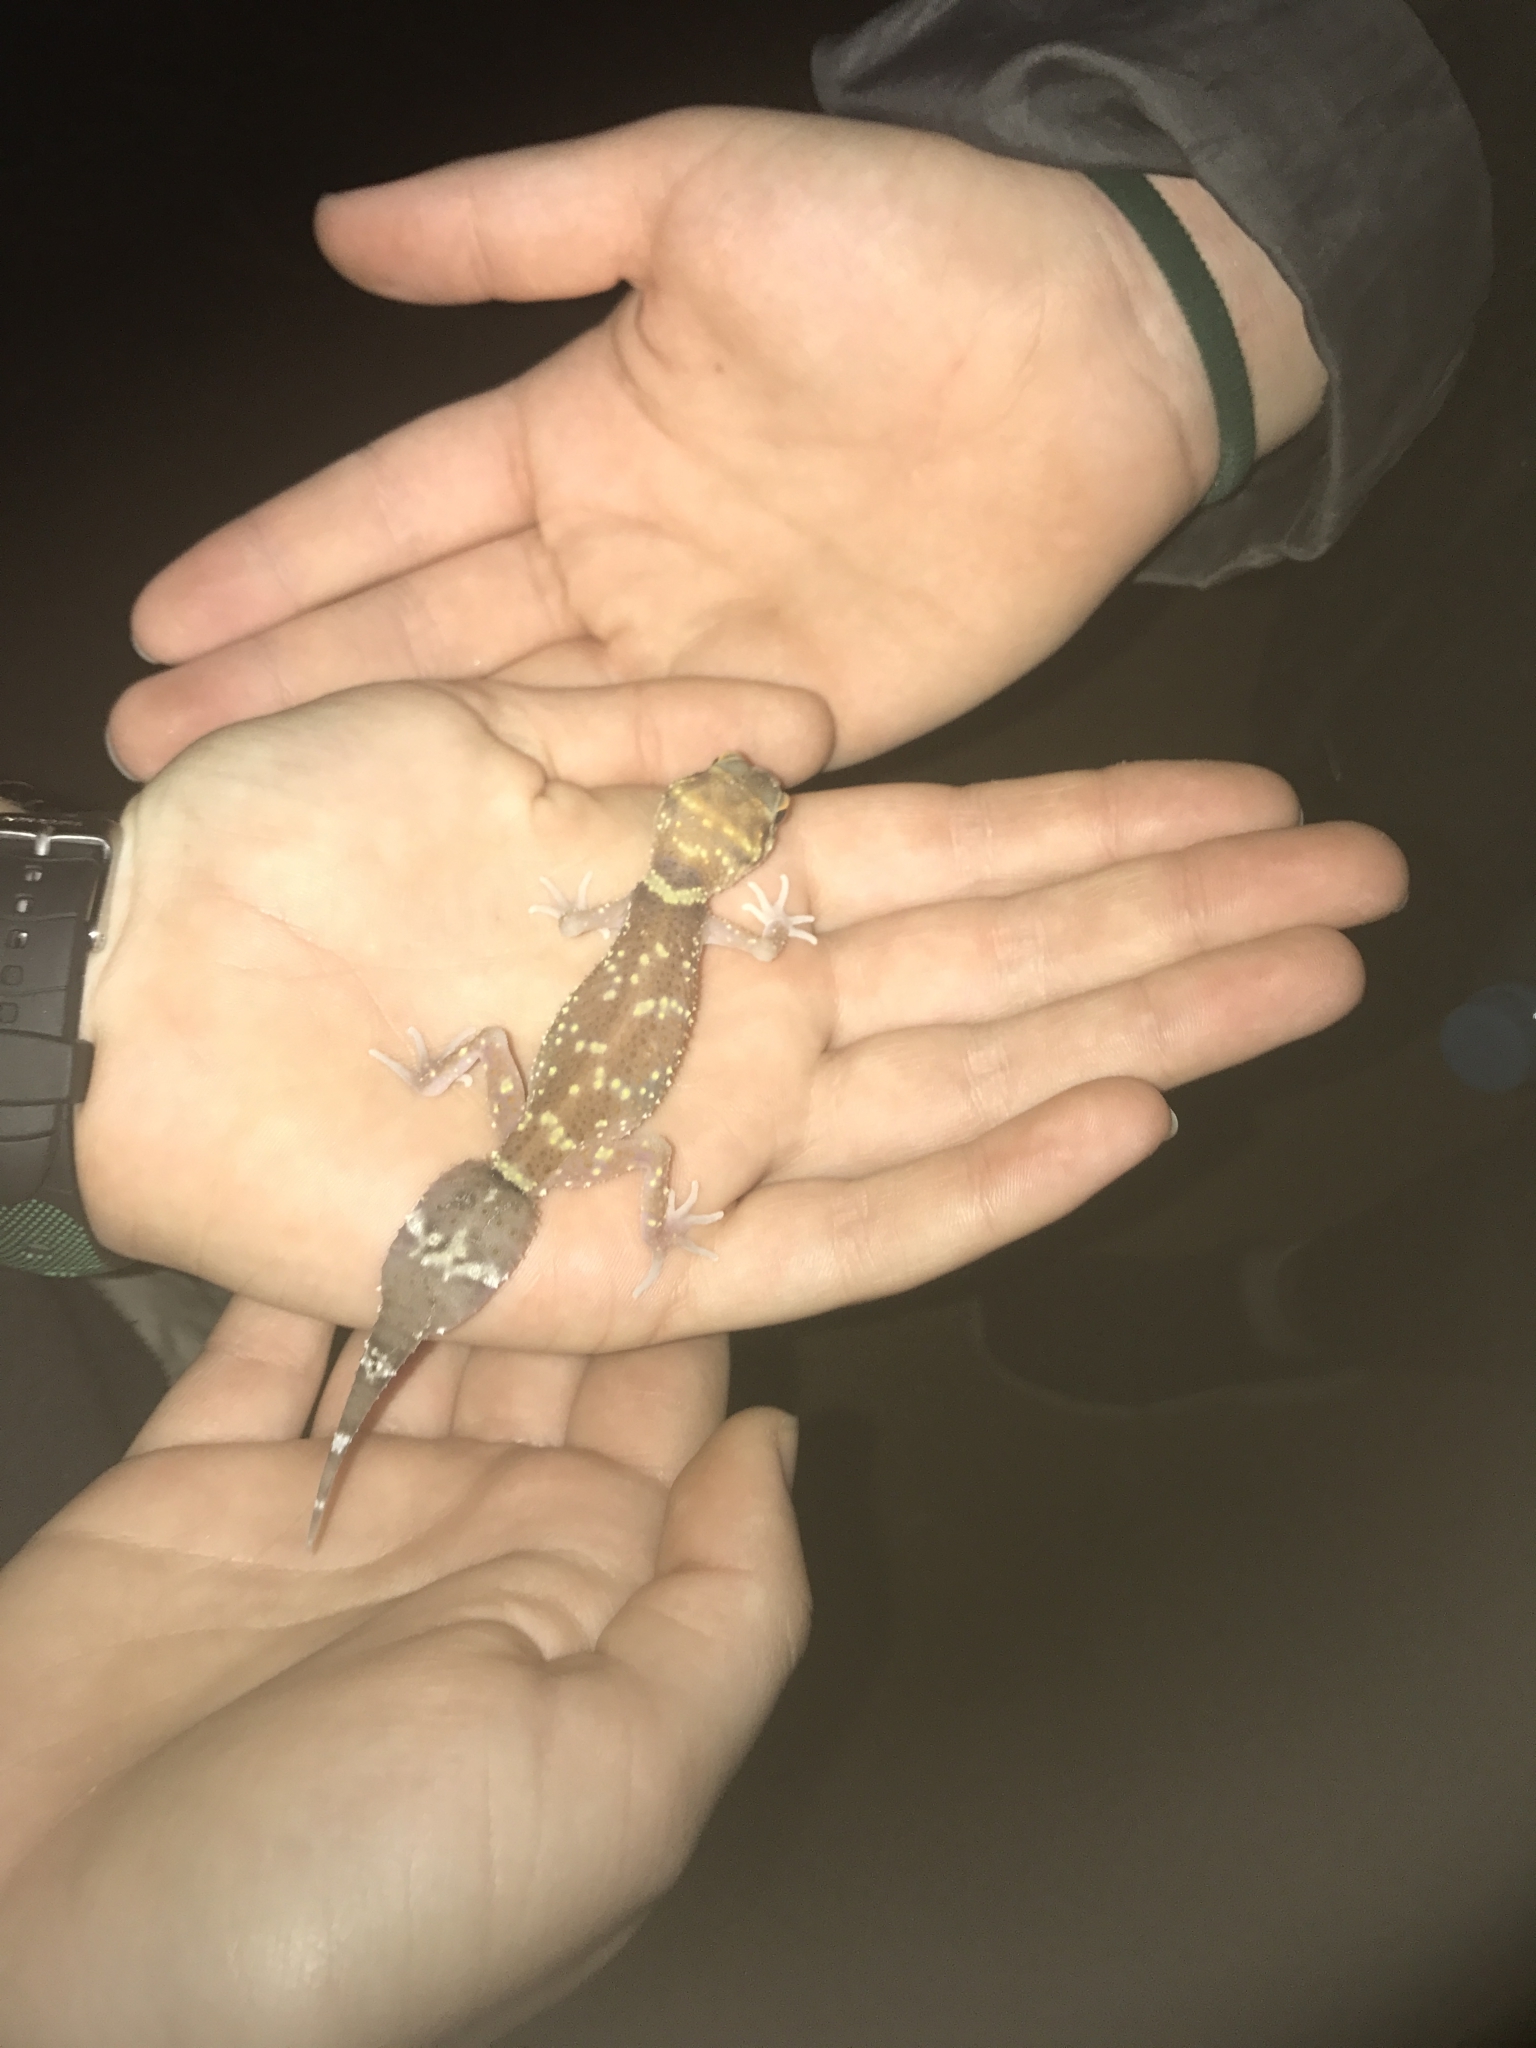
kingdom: Animalia
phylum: Chordata
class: Squamata
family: Carphodactylidae
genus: Underwoodisaurus
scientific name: Underwoodisaurus milii
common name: Barking gecko
